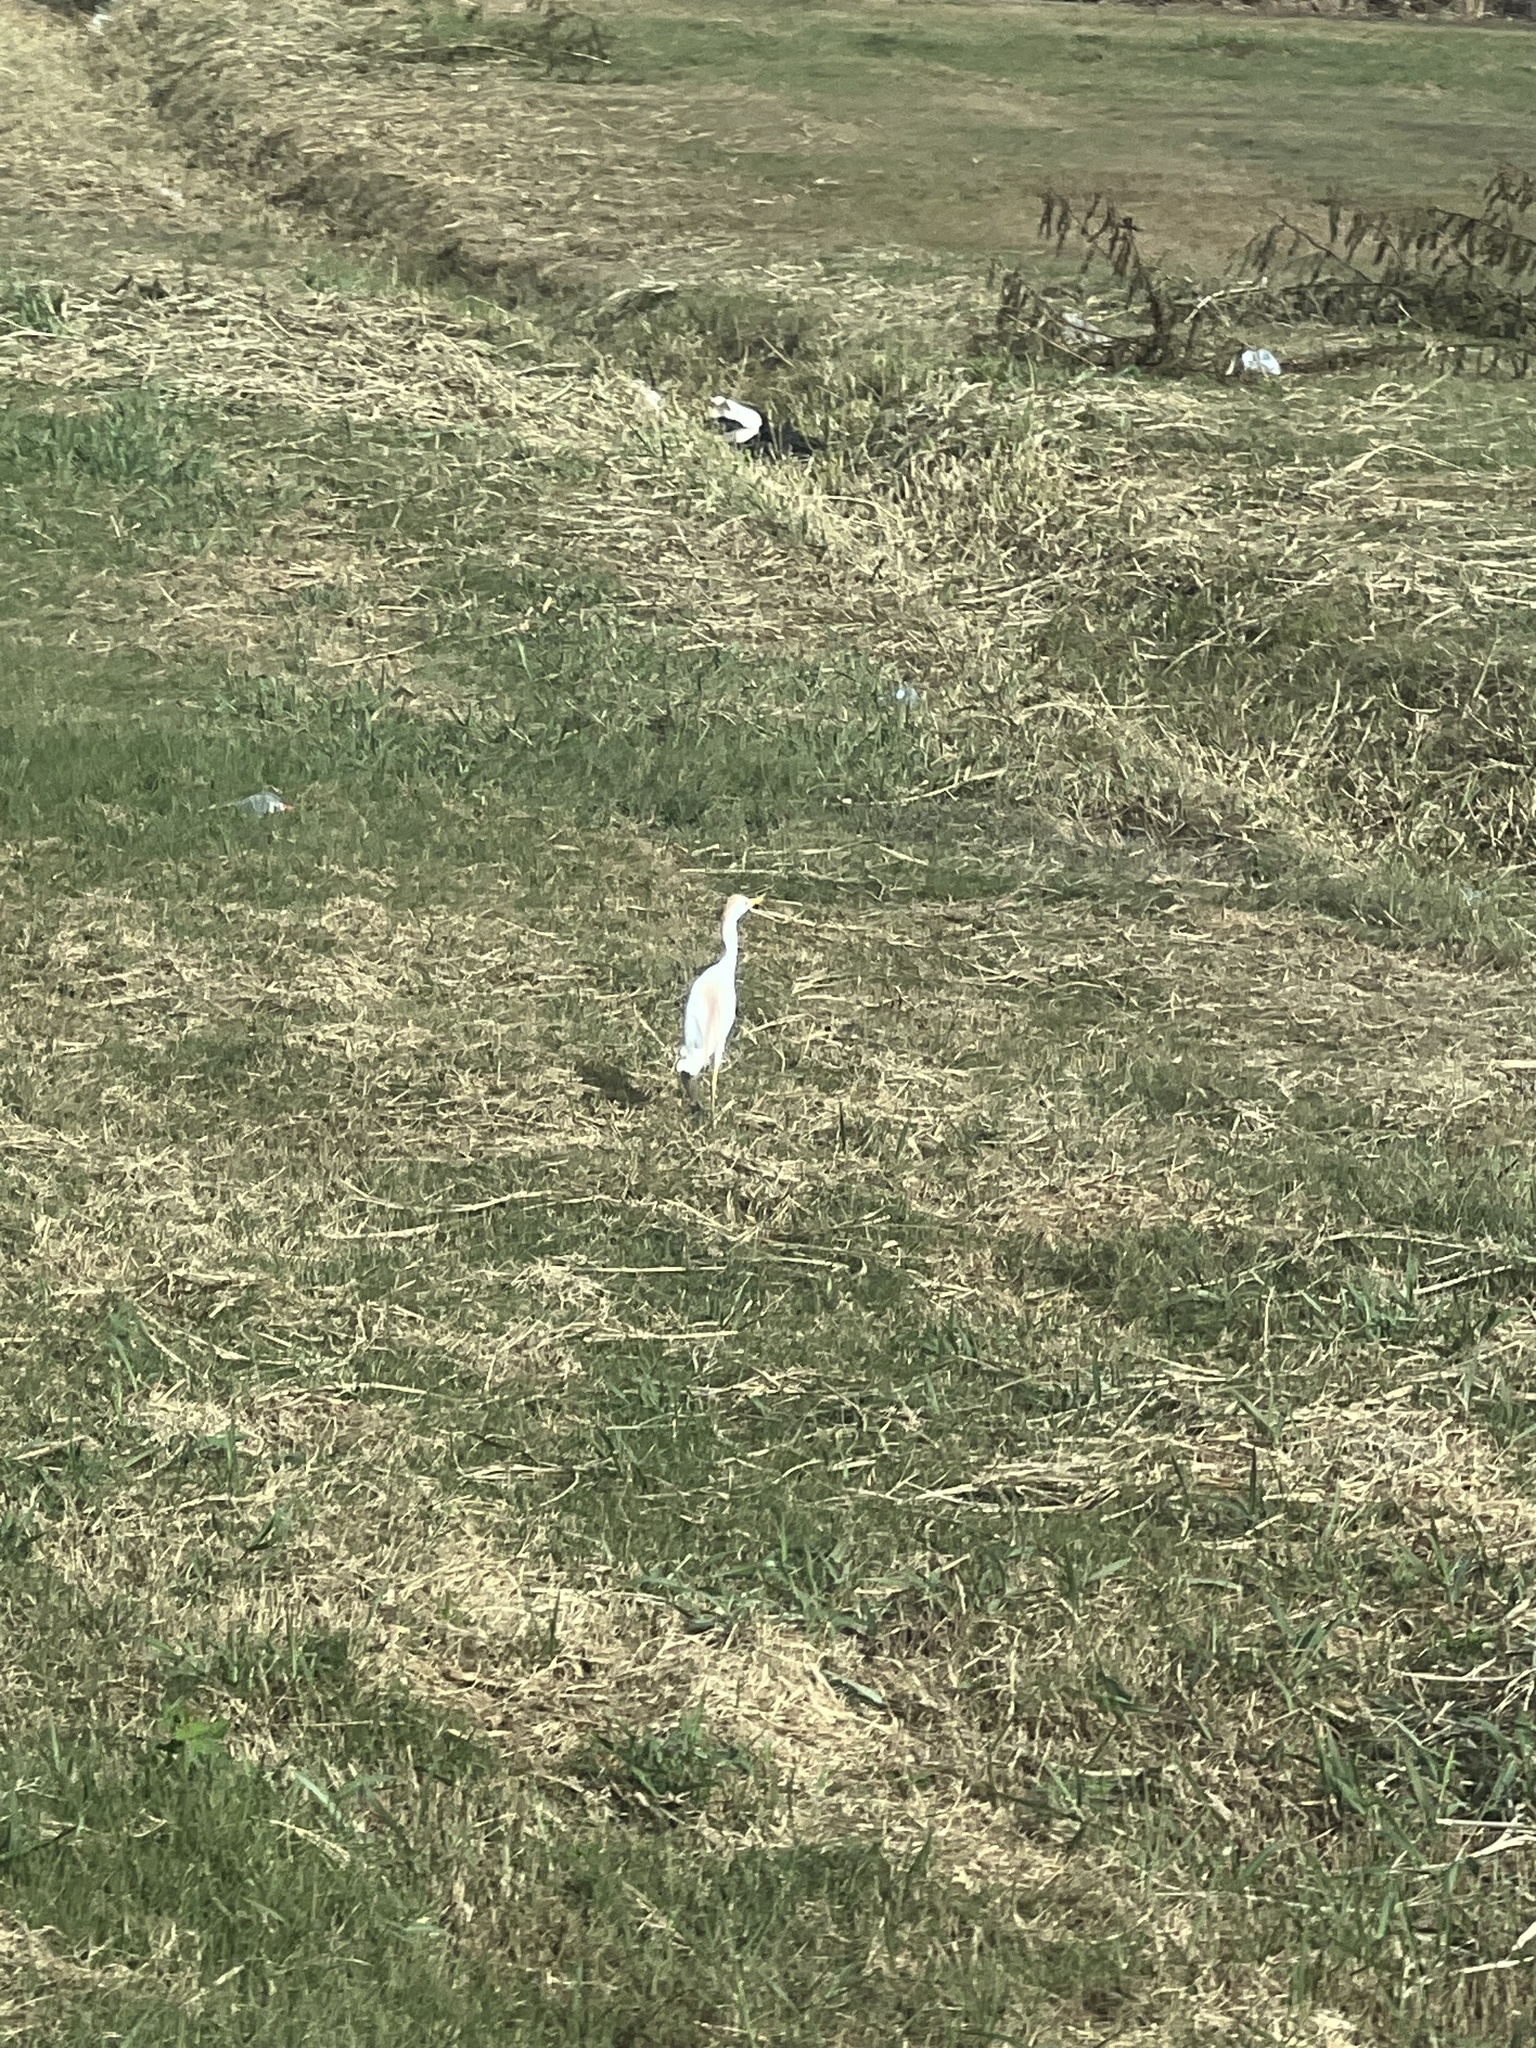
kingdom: Animalia
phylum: Chordata
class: Aves
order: Pelecaniformes
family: Ardeidae
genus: Bubulcus
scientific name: Bubulcus ibis
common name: Cattle egret
